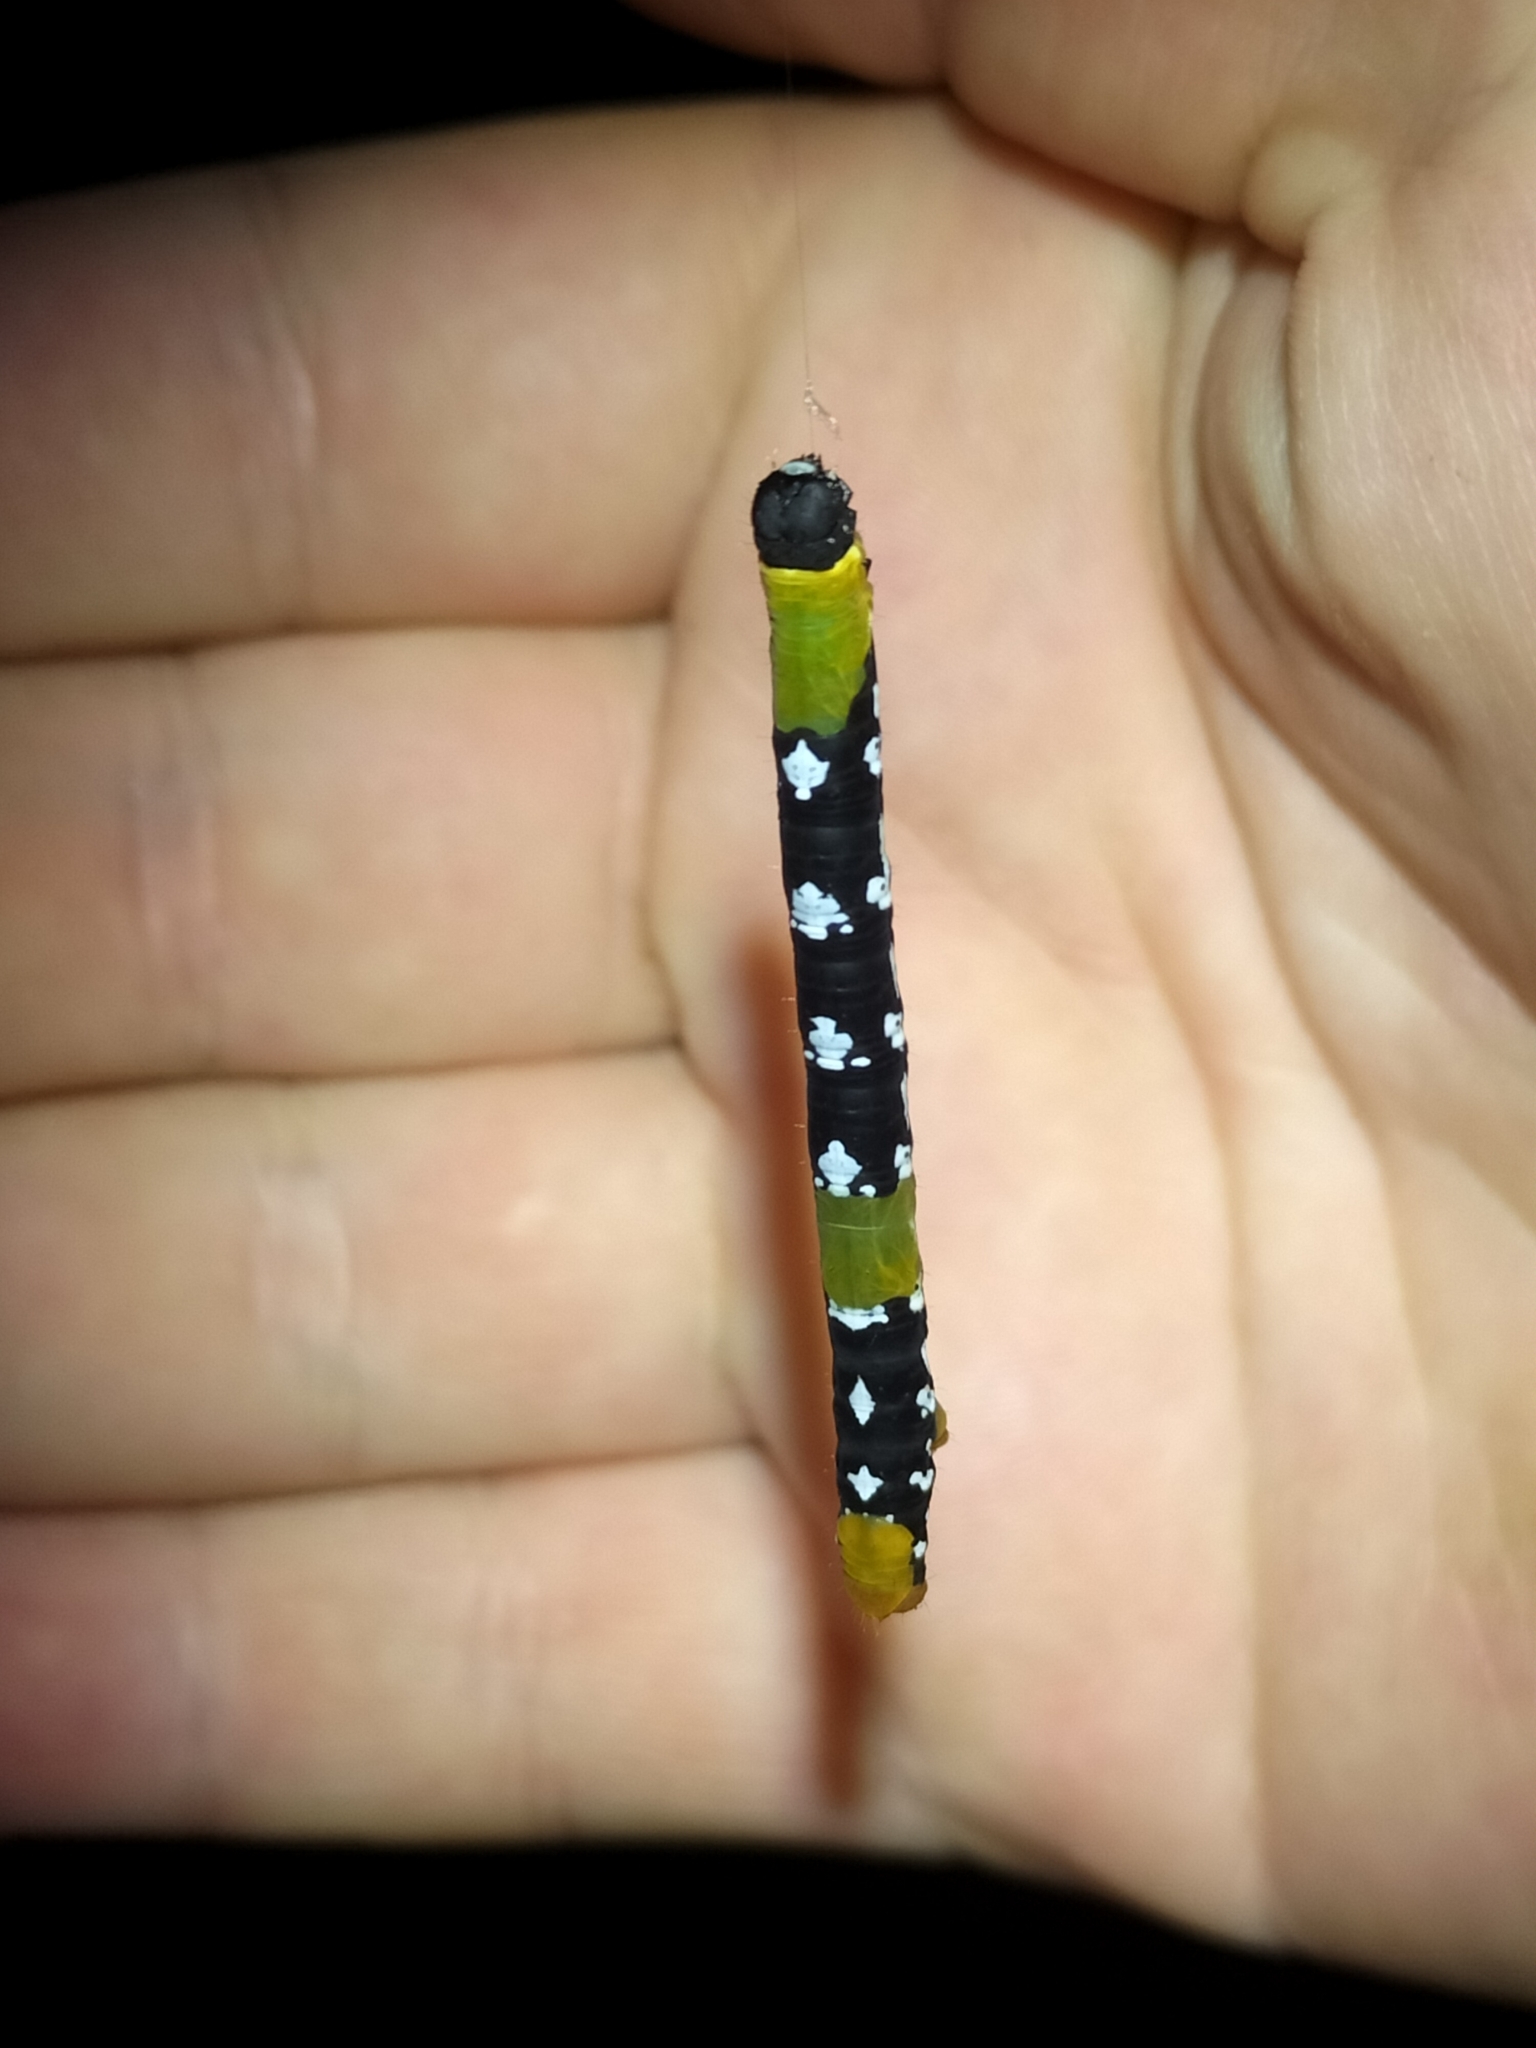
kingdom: Animalia
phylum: Arthropoda
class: Insecta
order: Lepidoptera
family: Geometridae
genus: Bracca
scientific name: Bracca rotundata
